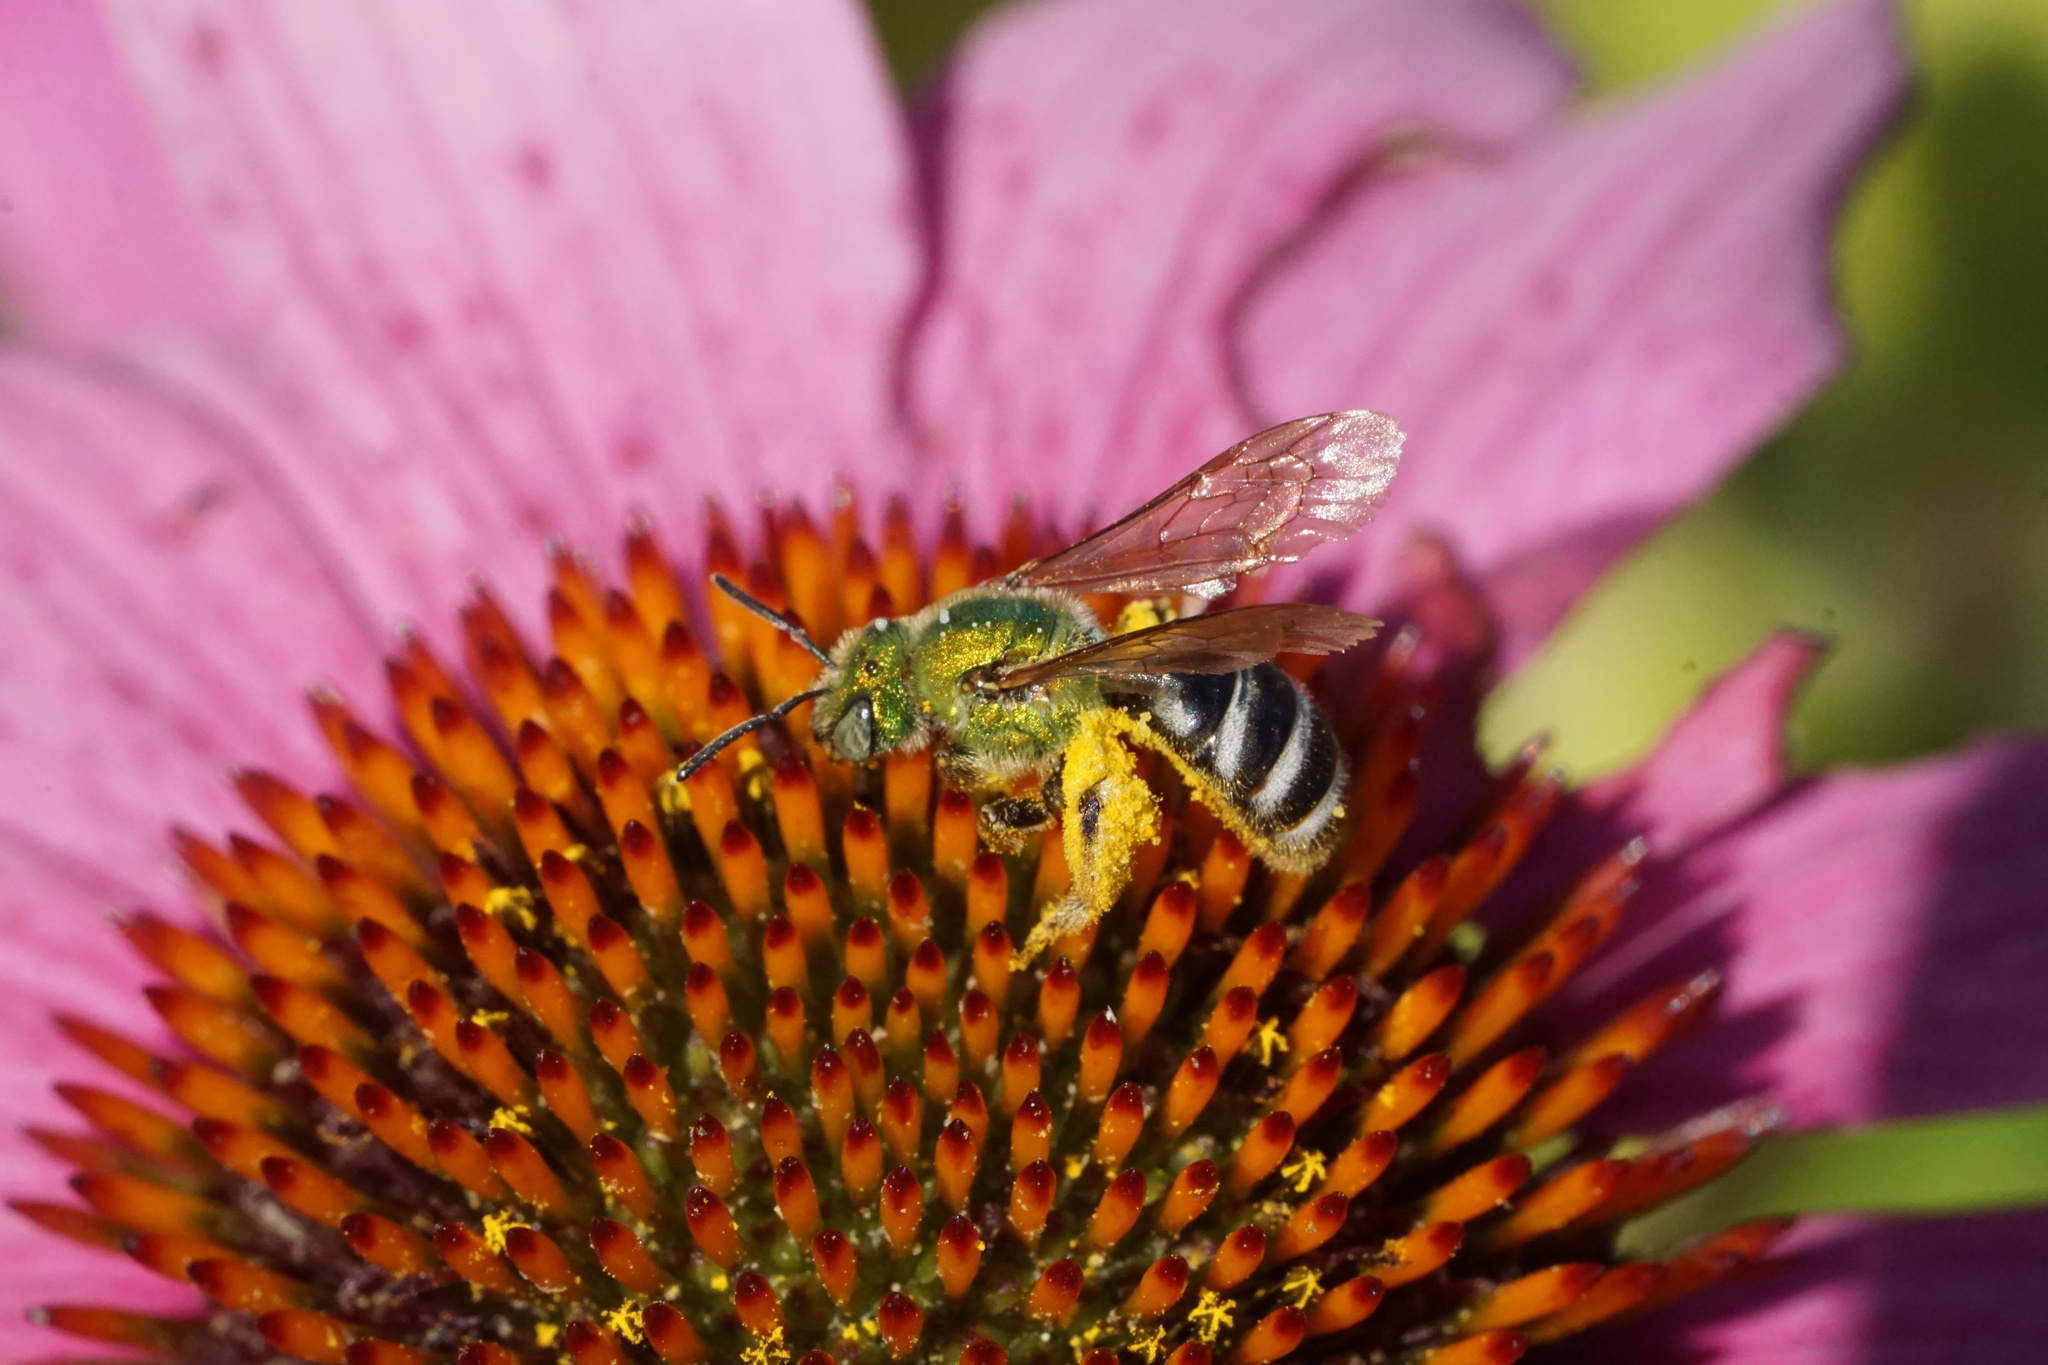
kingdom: Animalia
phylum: Arthropoda
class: Insecta
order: Hymenoptera
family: Halictidae
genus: Agapostemon
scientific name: Agapostemon virescens
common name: Bicolored striped sweat bee
